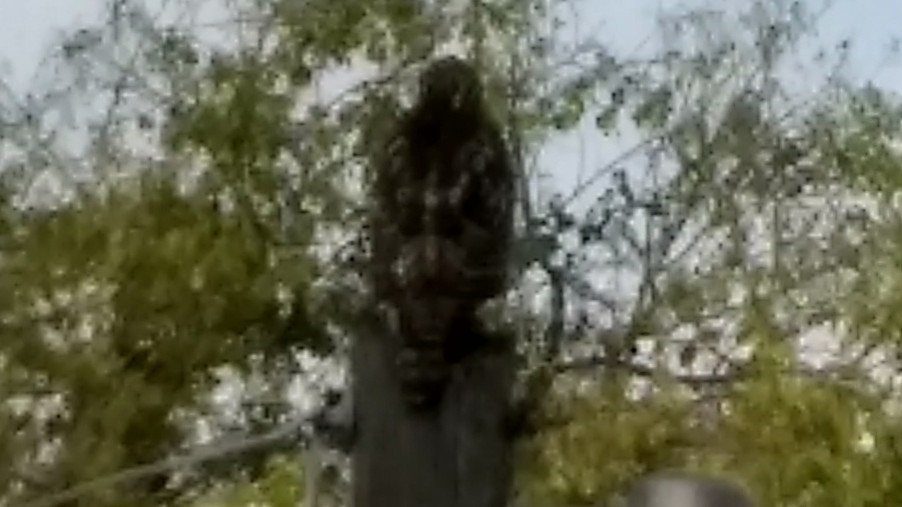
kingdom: Animalia
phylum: Chordata
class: Aves
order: Accipitriformes
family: Accipitridae
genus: Buteo
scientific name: Buteo jamaicensis
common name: Red-tailed hawk
